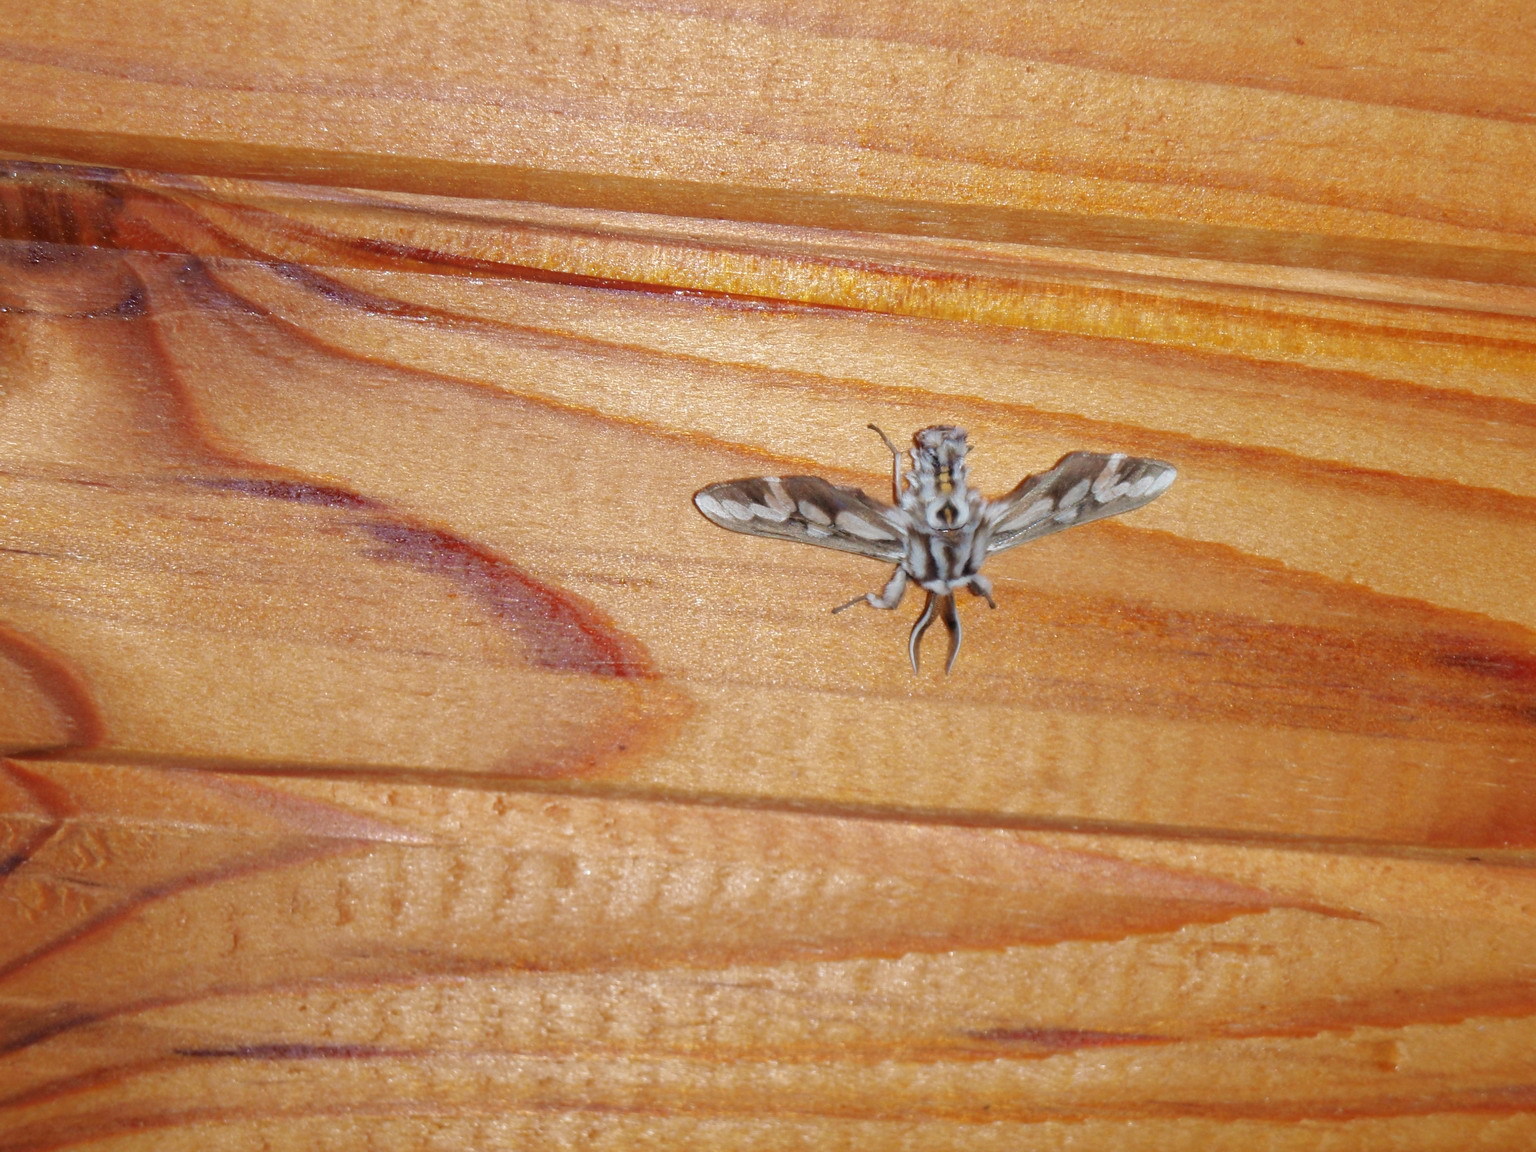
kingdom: Animalia
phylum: Arthropoda
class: Insecta
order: Lepidoptera
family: Erebidae
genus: Thyretes
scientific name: Thyretes hippotes
